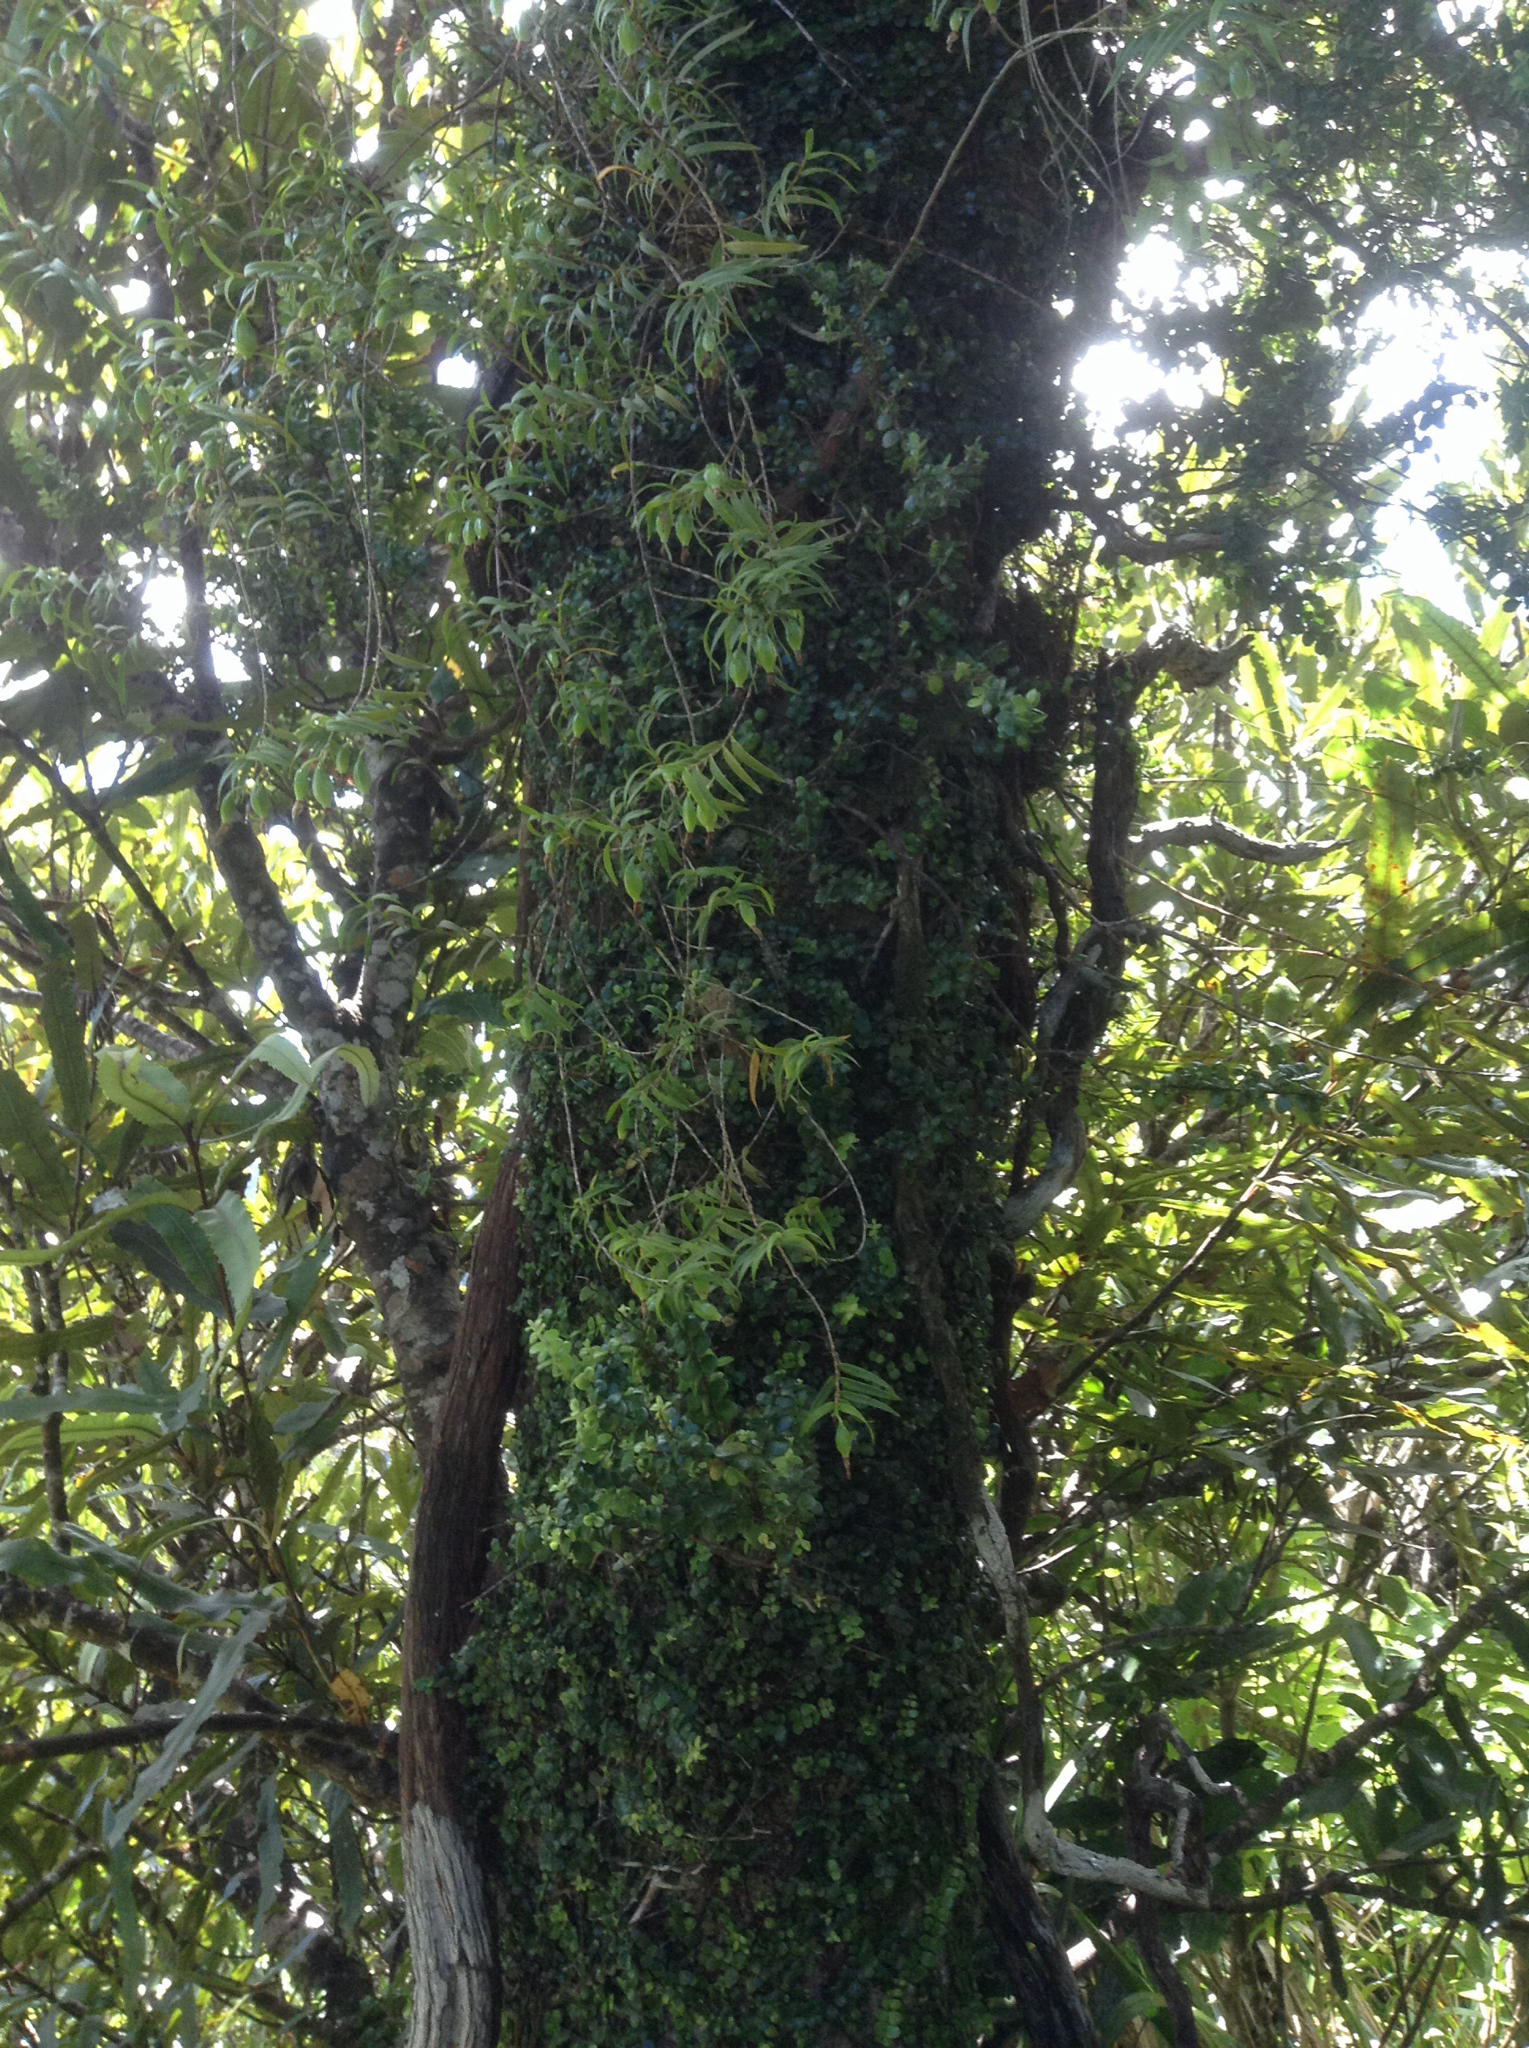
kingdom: Plantae
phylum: Tracheophyta
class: Liliopsida
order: Asparagales
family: Orchidaceae
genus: Dendrobium
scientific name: Dendrobium cunninghamii
